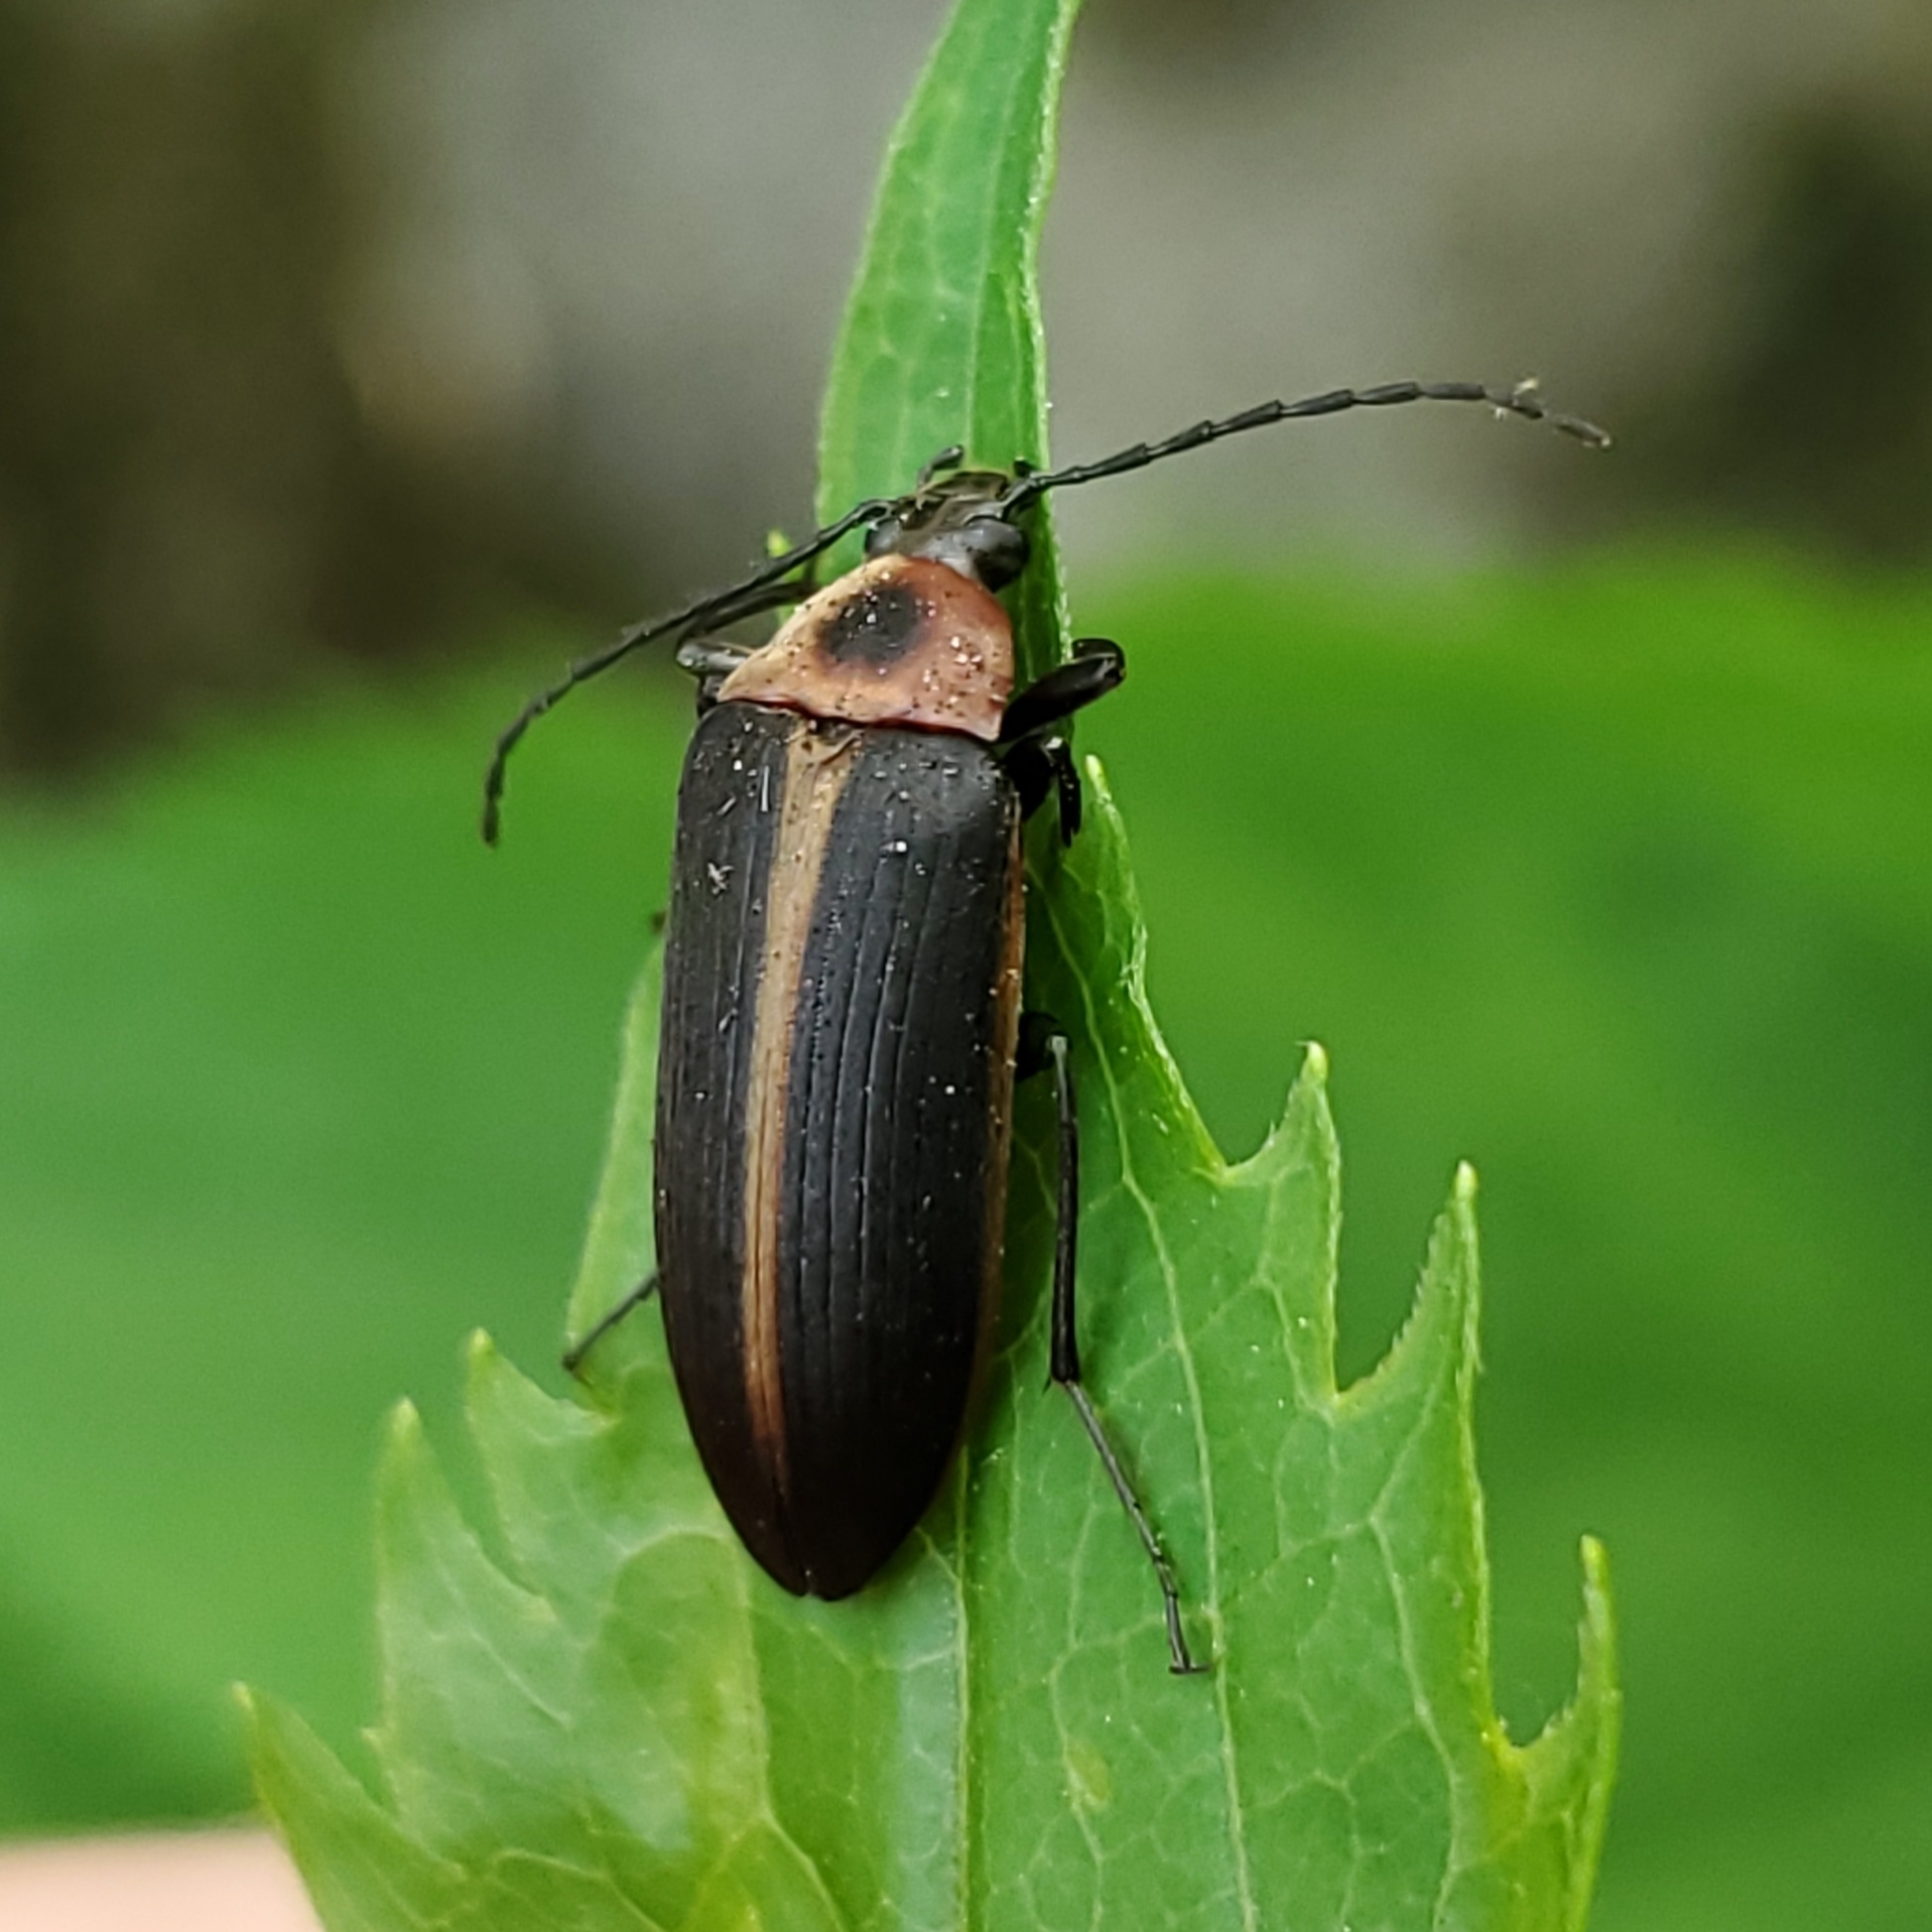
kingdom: Animalia
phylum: Arthropoda
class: Insecta
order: Coleoptera
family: Tenebrionidae
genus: Pseudocistela
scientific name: Pseudocistela marginata
